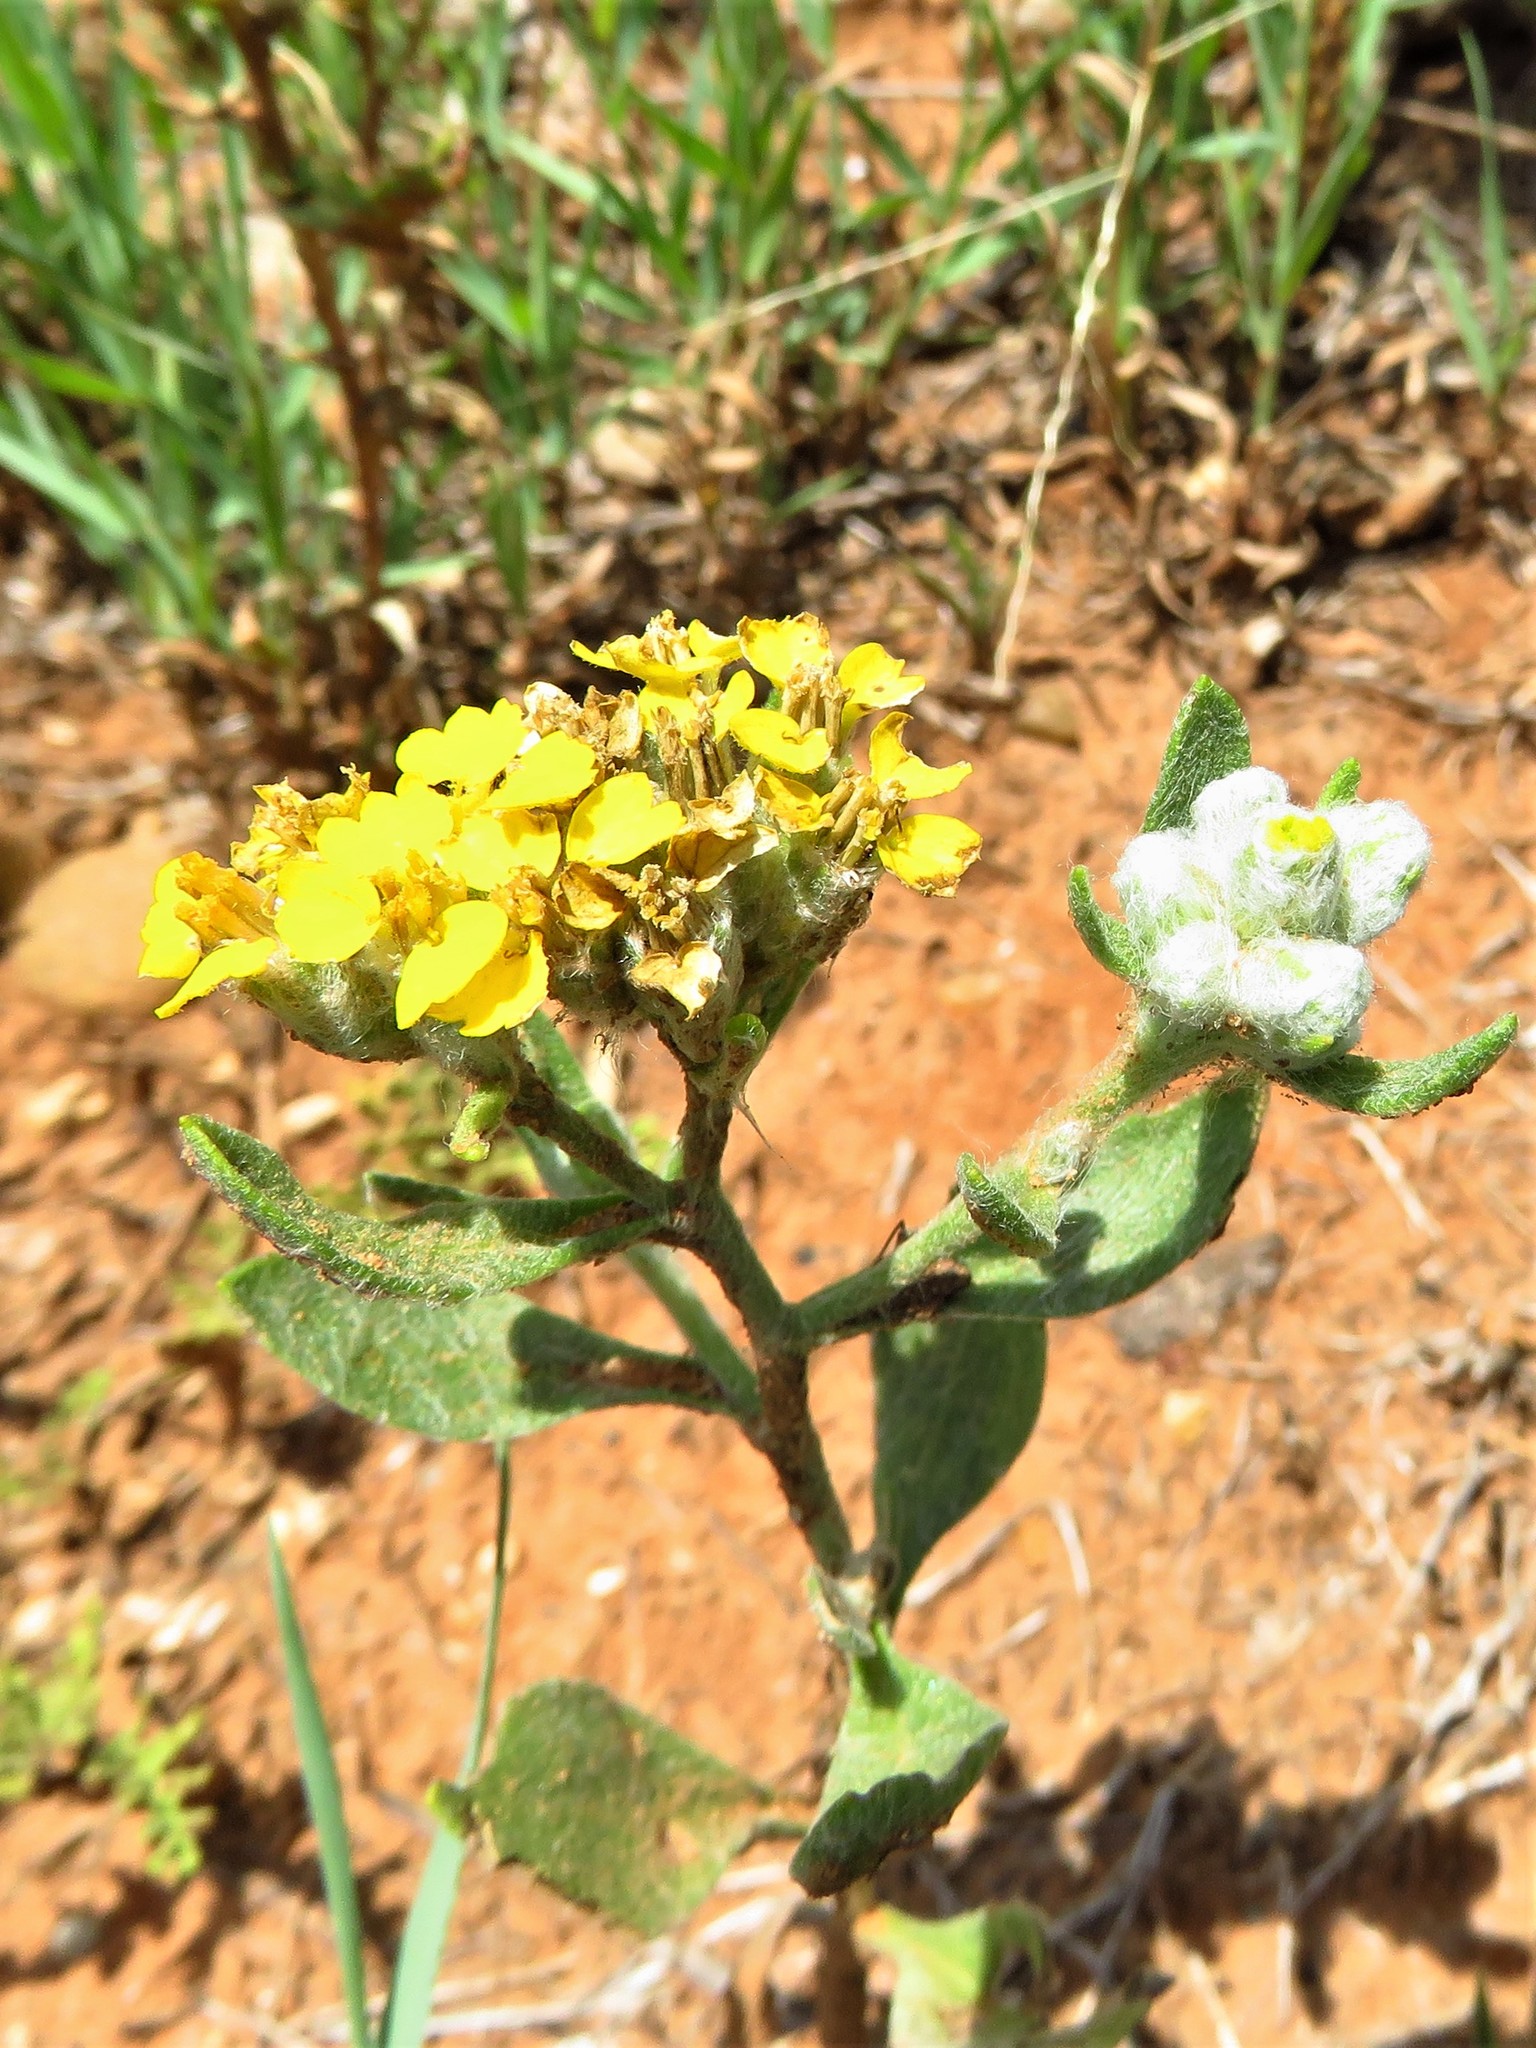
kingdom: Plantae
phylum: Tracheophyta
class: Magnoliopsida
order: Asterales
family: Asteraceae
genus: Psilostrophe
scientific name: Psilostrophe tagetina
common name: Marigold paper-flower
